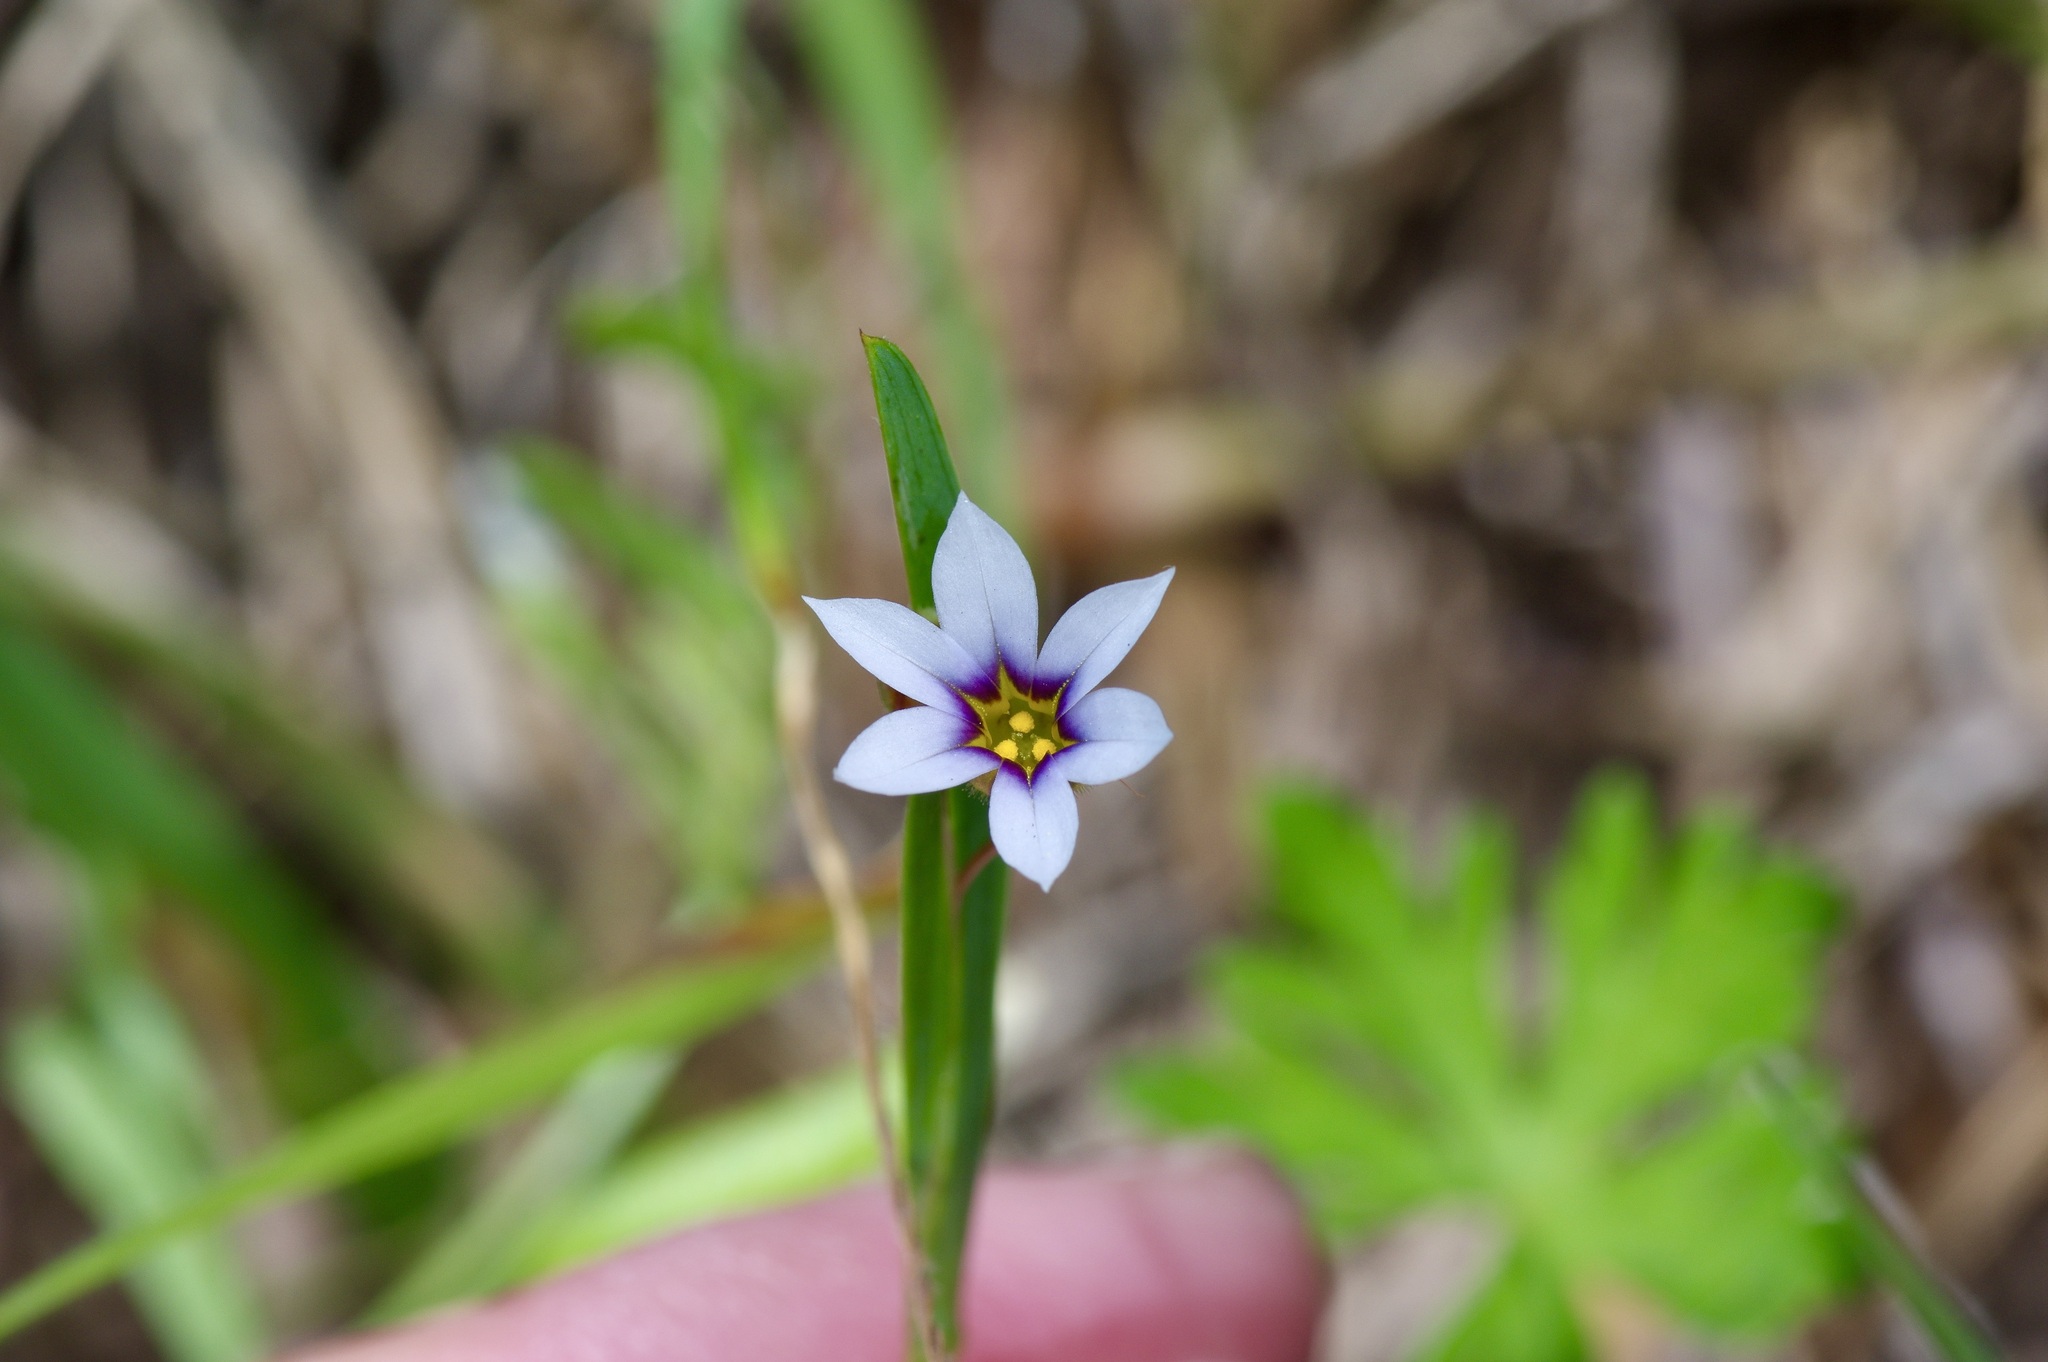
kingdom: Plantae
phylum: Tracheophyta
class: Liliopsida
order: Asparagales
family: Iridaceae
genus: Sisyrinchium
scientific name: Sisyrinchium micranthum
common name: Bermuda pigroot
